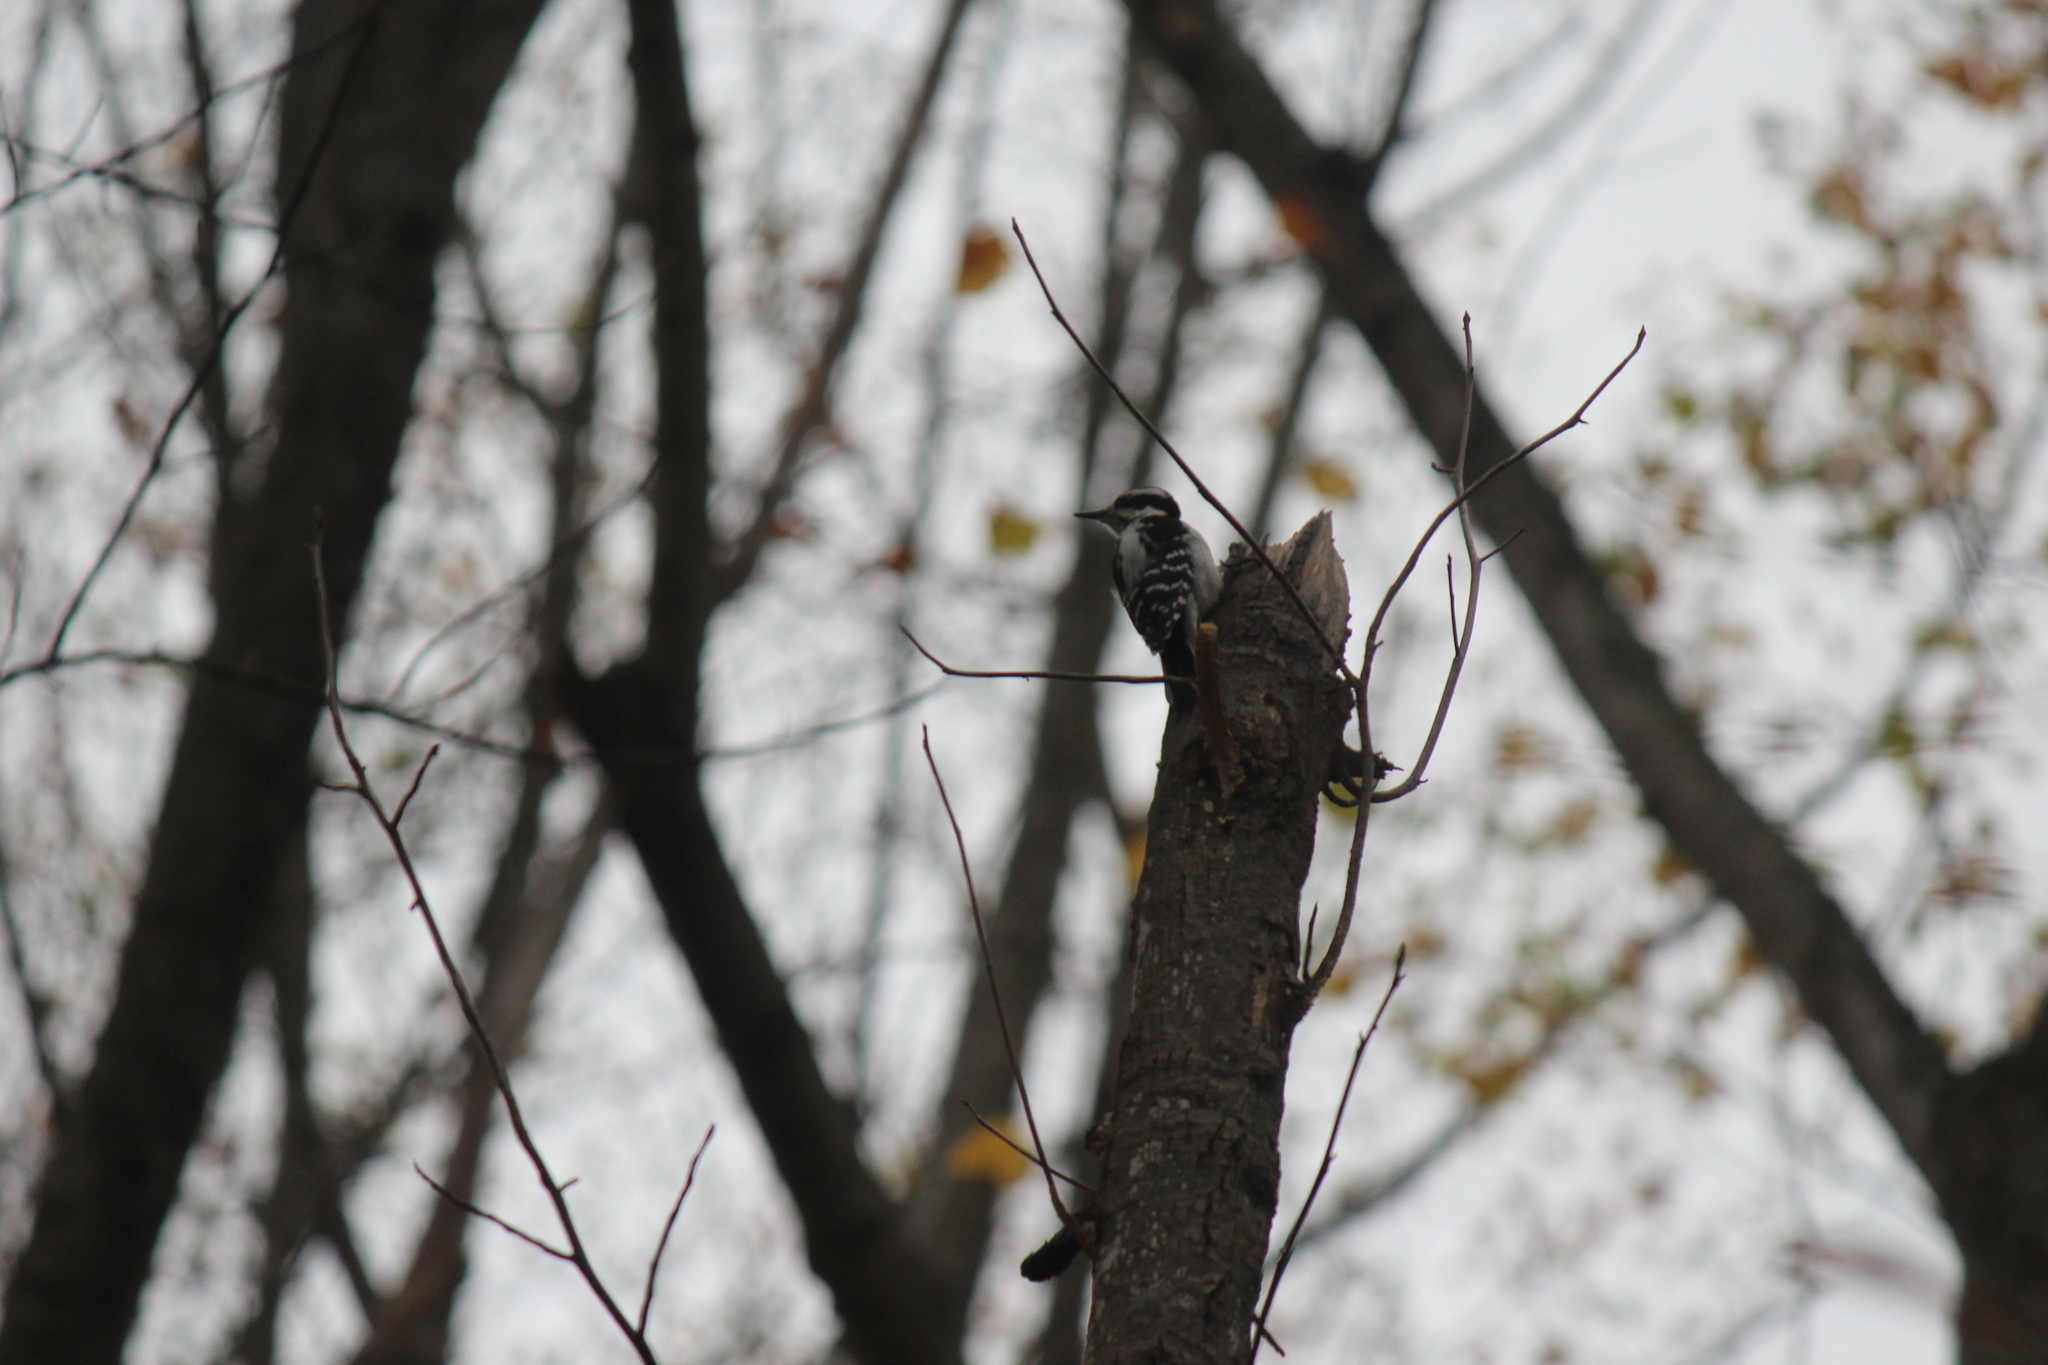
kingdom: Animalia
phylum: Chordata
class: Aves
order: Piciformes
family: Picidae
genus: Leuconotopicus
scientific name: Leuconotopicus villosus
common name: Hairy woodpecker
